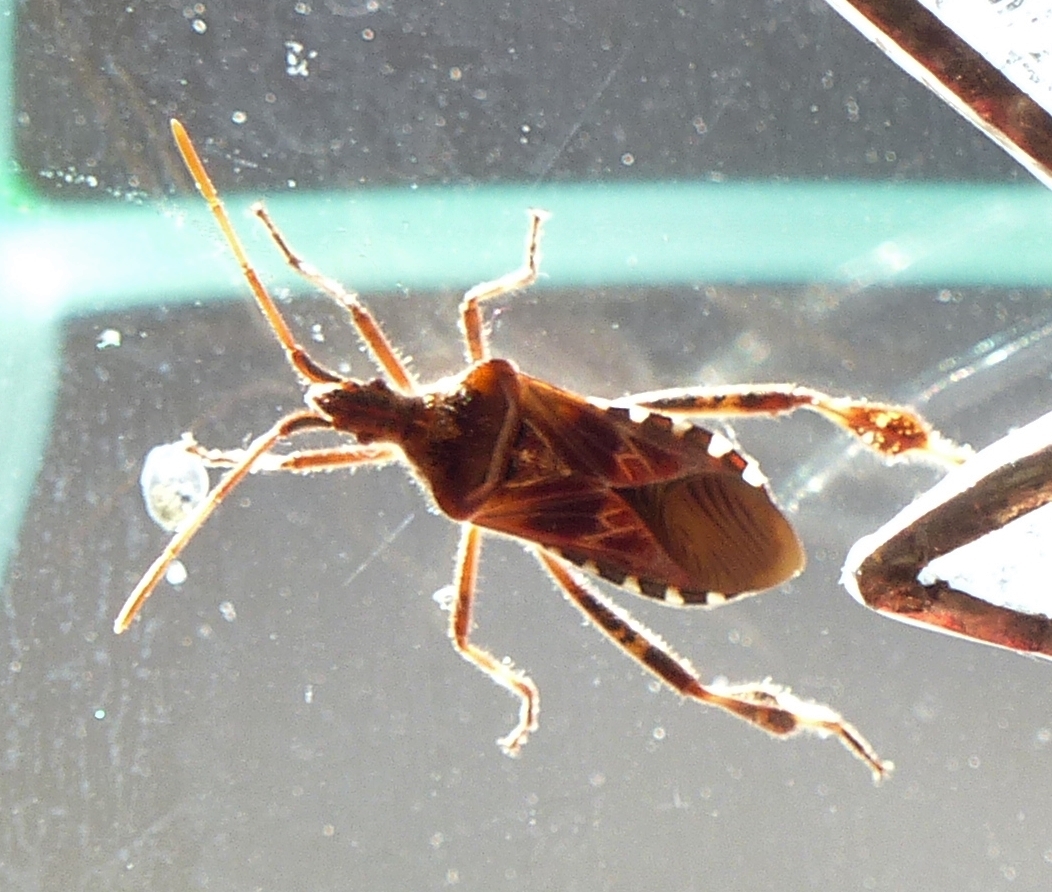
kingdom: Animalia
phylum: Arthropoda
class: Insecta
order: Hemiptera
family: Coreidae
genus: Leptoglossus
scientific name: Leptoglossus occidentalis
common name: Western conifer-seed bug
